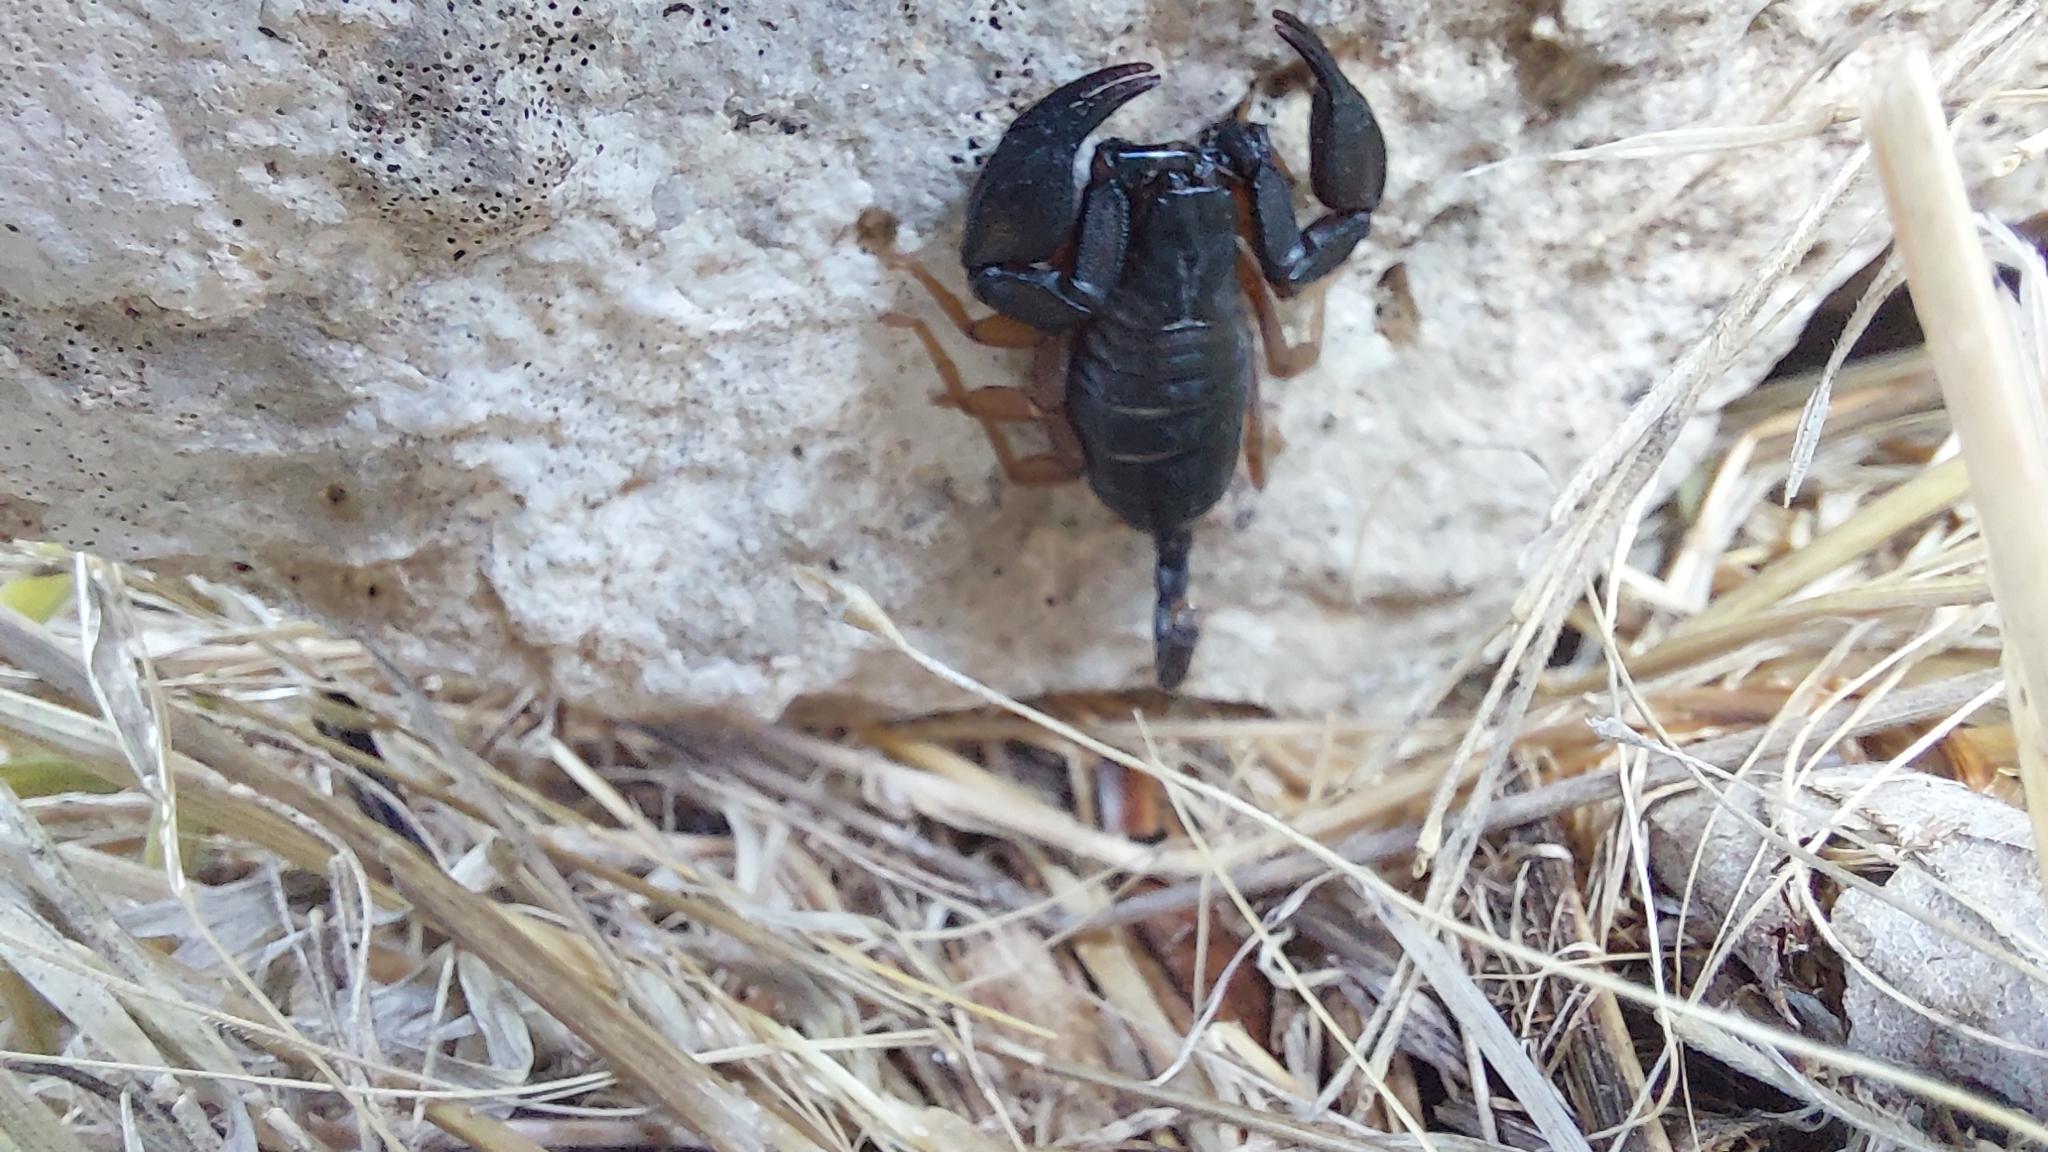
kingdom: Animalia
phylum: Arthropoda
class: Arachnida
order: Scorpiones
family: Euscorpiidae
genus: Euscorpius
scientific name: Euscorpius flavicaudis
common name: European yellow-tailed scorpion
